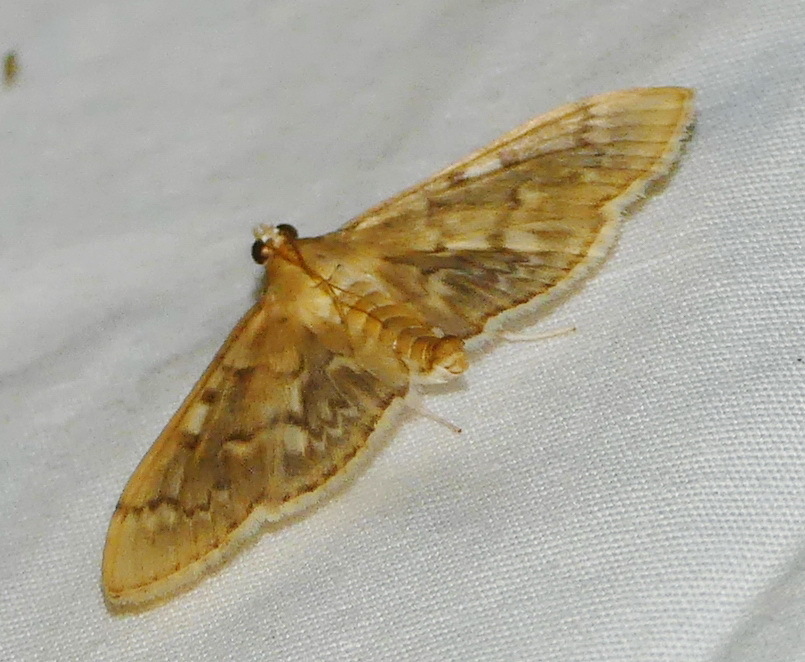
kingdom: Animalia
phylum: Arthropoda
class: Insecta
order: Lepidoptera
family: Crambidae
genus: Herpetogramma
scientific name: Herpetogramma aeglealis
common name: Serpentine webworm moth
